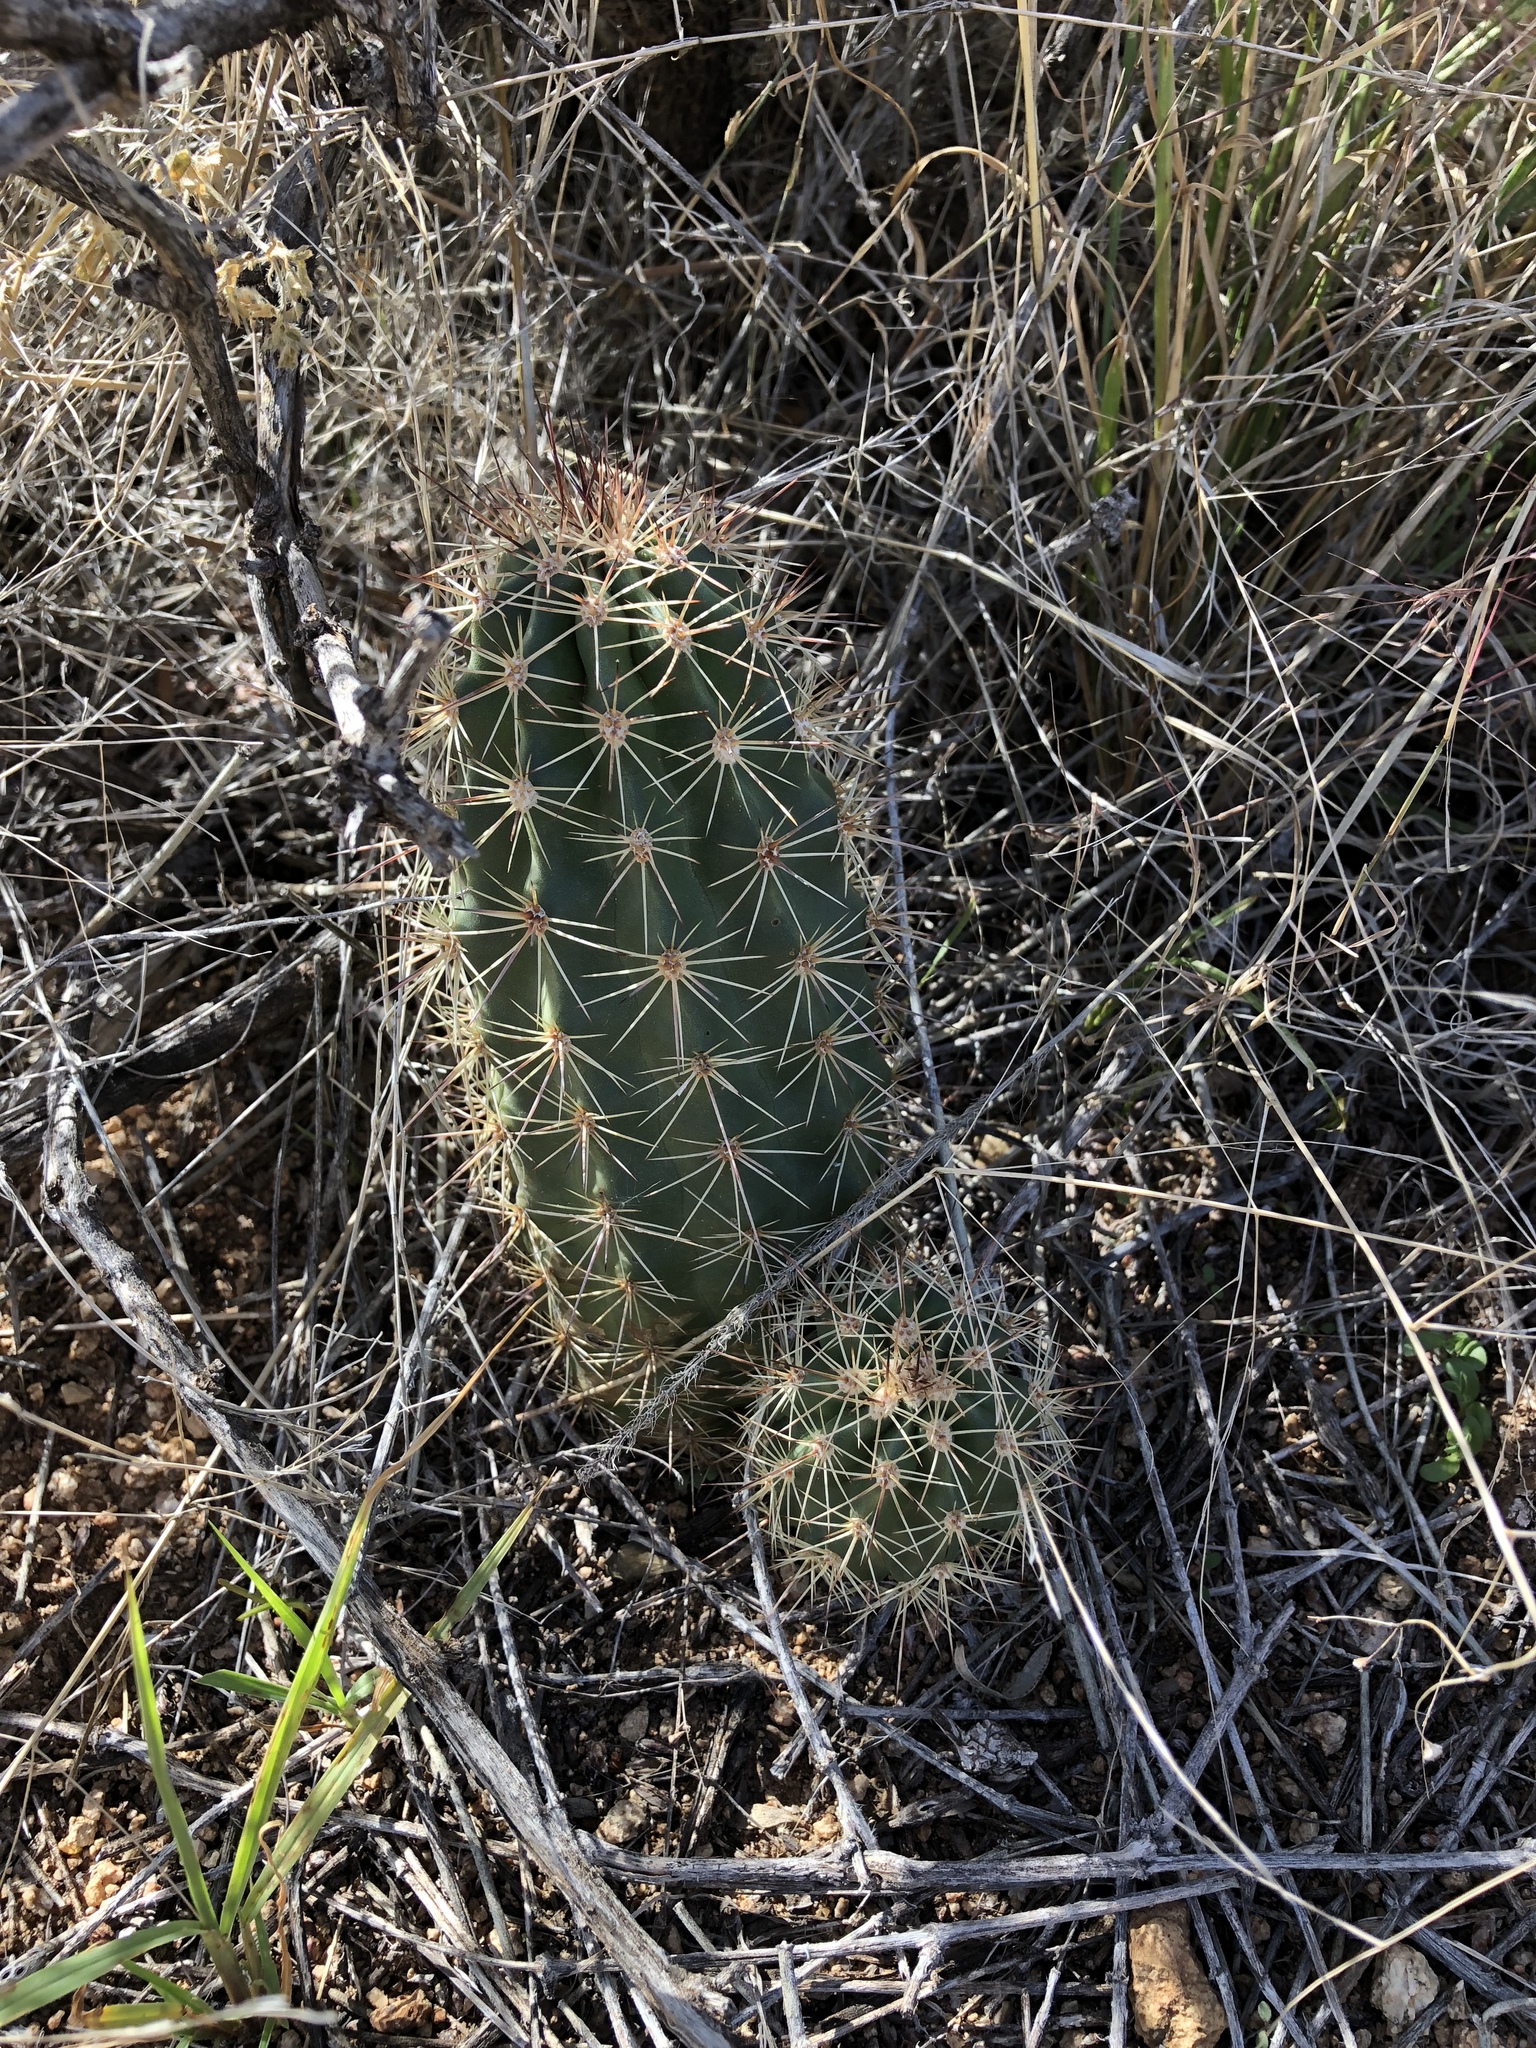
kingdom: Plantae
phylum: Tracheophyta
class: Magnoliopsida
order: Caryophyllales
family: Cactaceae
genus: Echinocereus
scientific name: Echinocereus coccineus
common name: Scarlet hedgehog cactus
